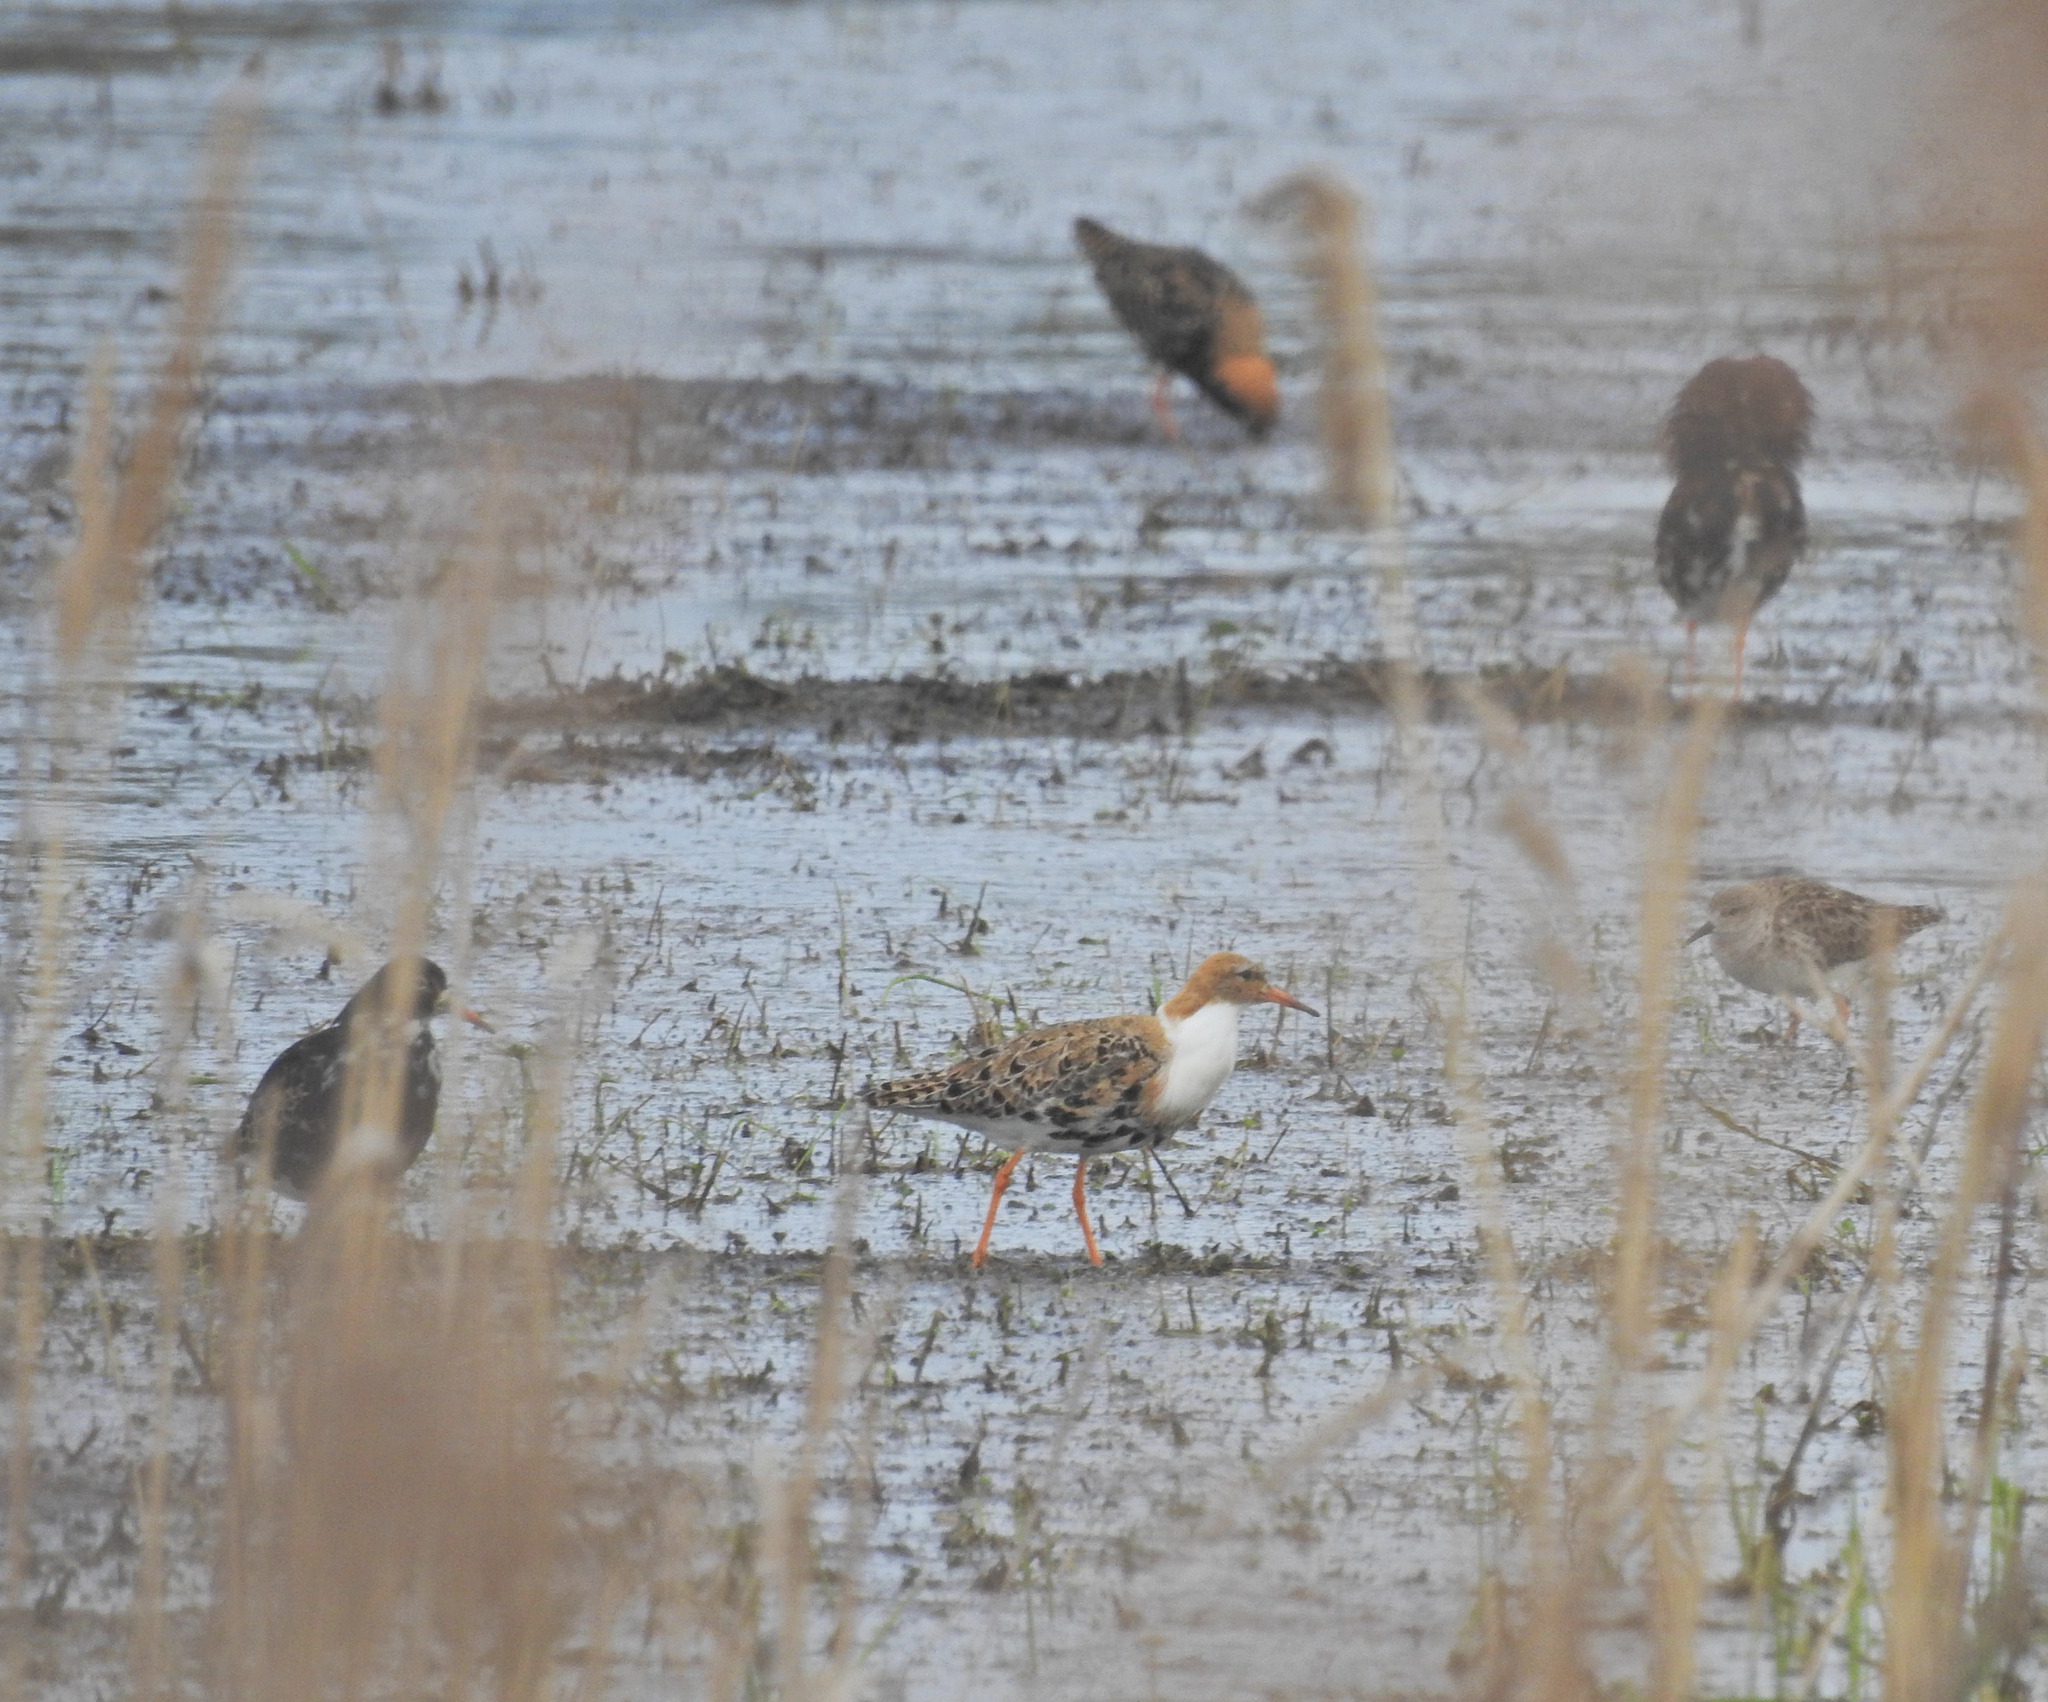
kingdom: Animalia
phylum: Chordata
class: Aves
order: Charadriiformes
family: Scolopacidae
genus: Calidris
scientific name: Calidris pugnax
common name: Ruff
